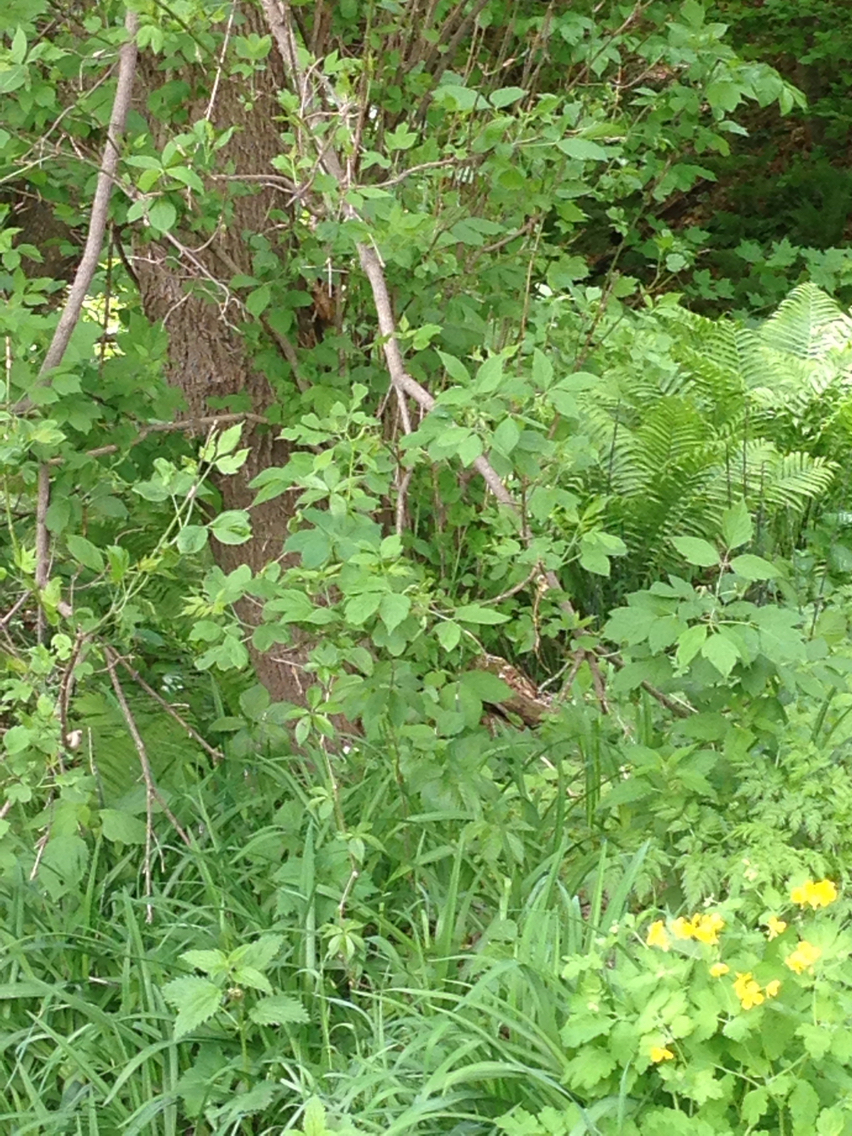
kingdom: Plantae
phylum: Tracheophyta
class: Magnoliopsida
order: Sapindales
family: Sapindaceae
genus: Acer
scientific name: Acer negundo
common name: Ashleaf maple
